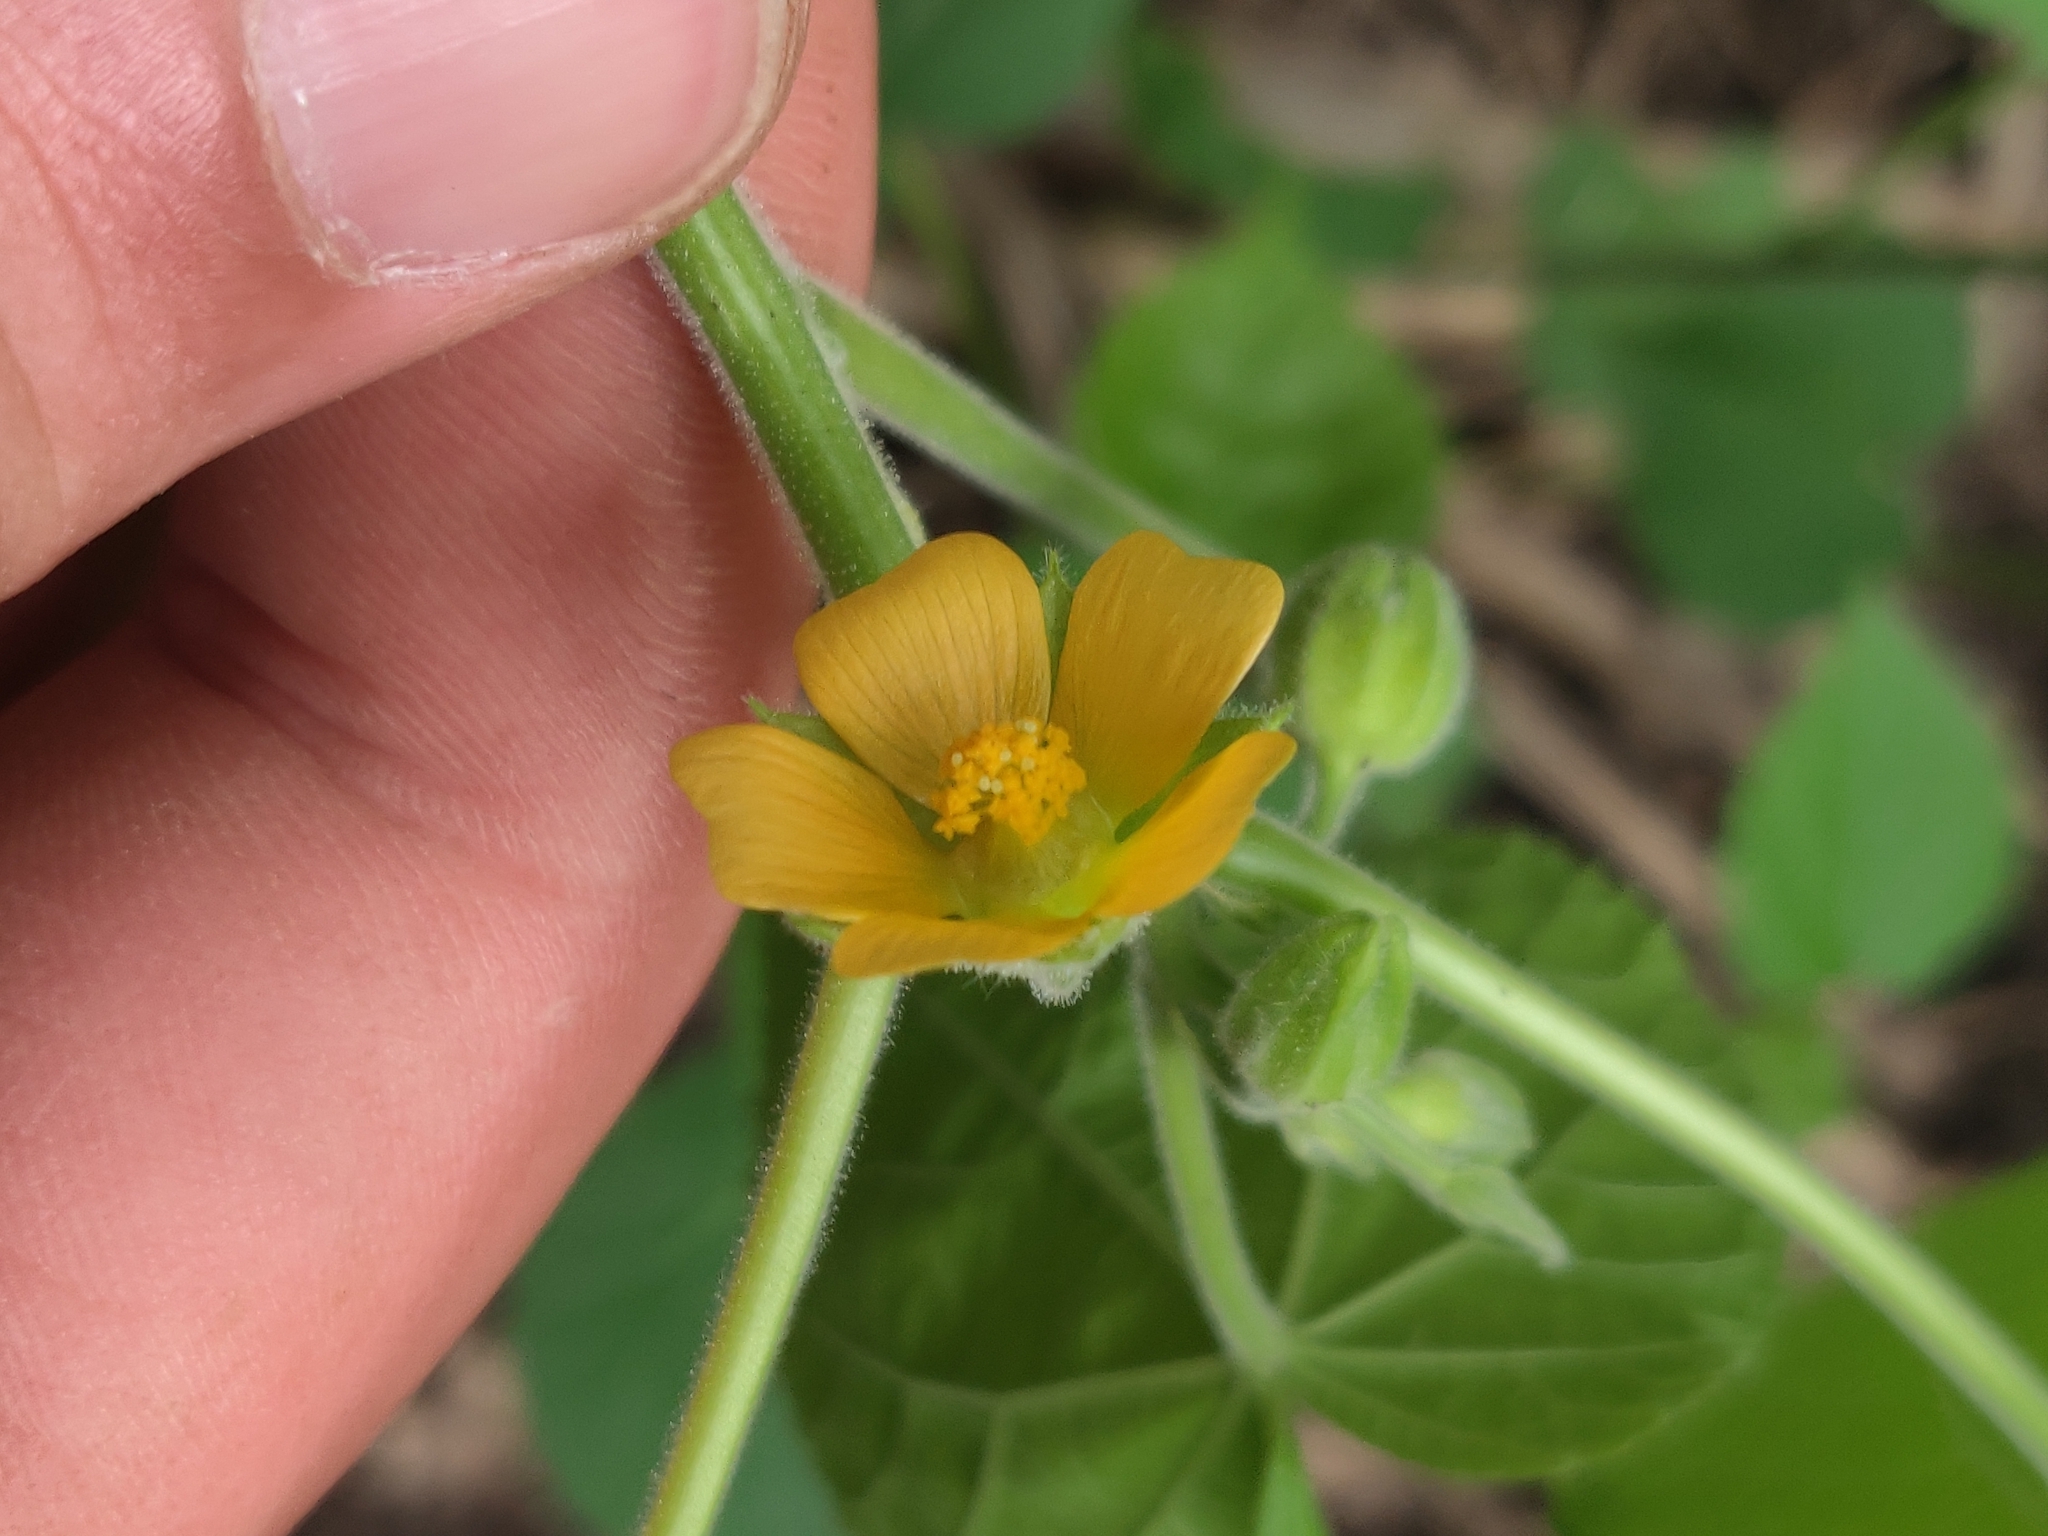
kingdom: Plantae
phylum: Tracheophyta
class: Magnoliopsida
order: Malvales
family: Malvaceae
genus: Abutilon
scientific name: Abutilon theophrasti
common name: Velvetleaf
